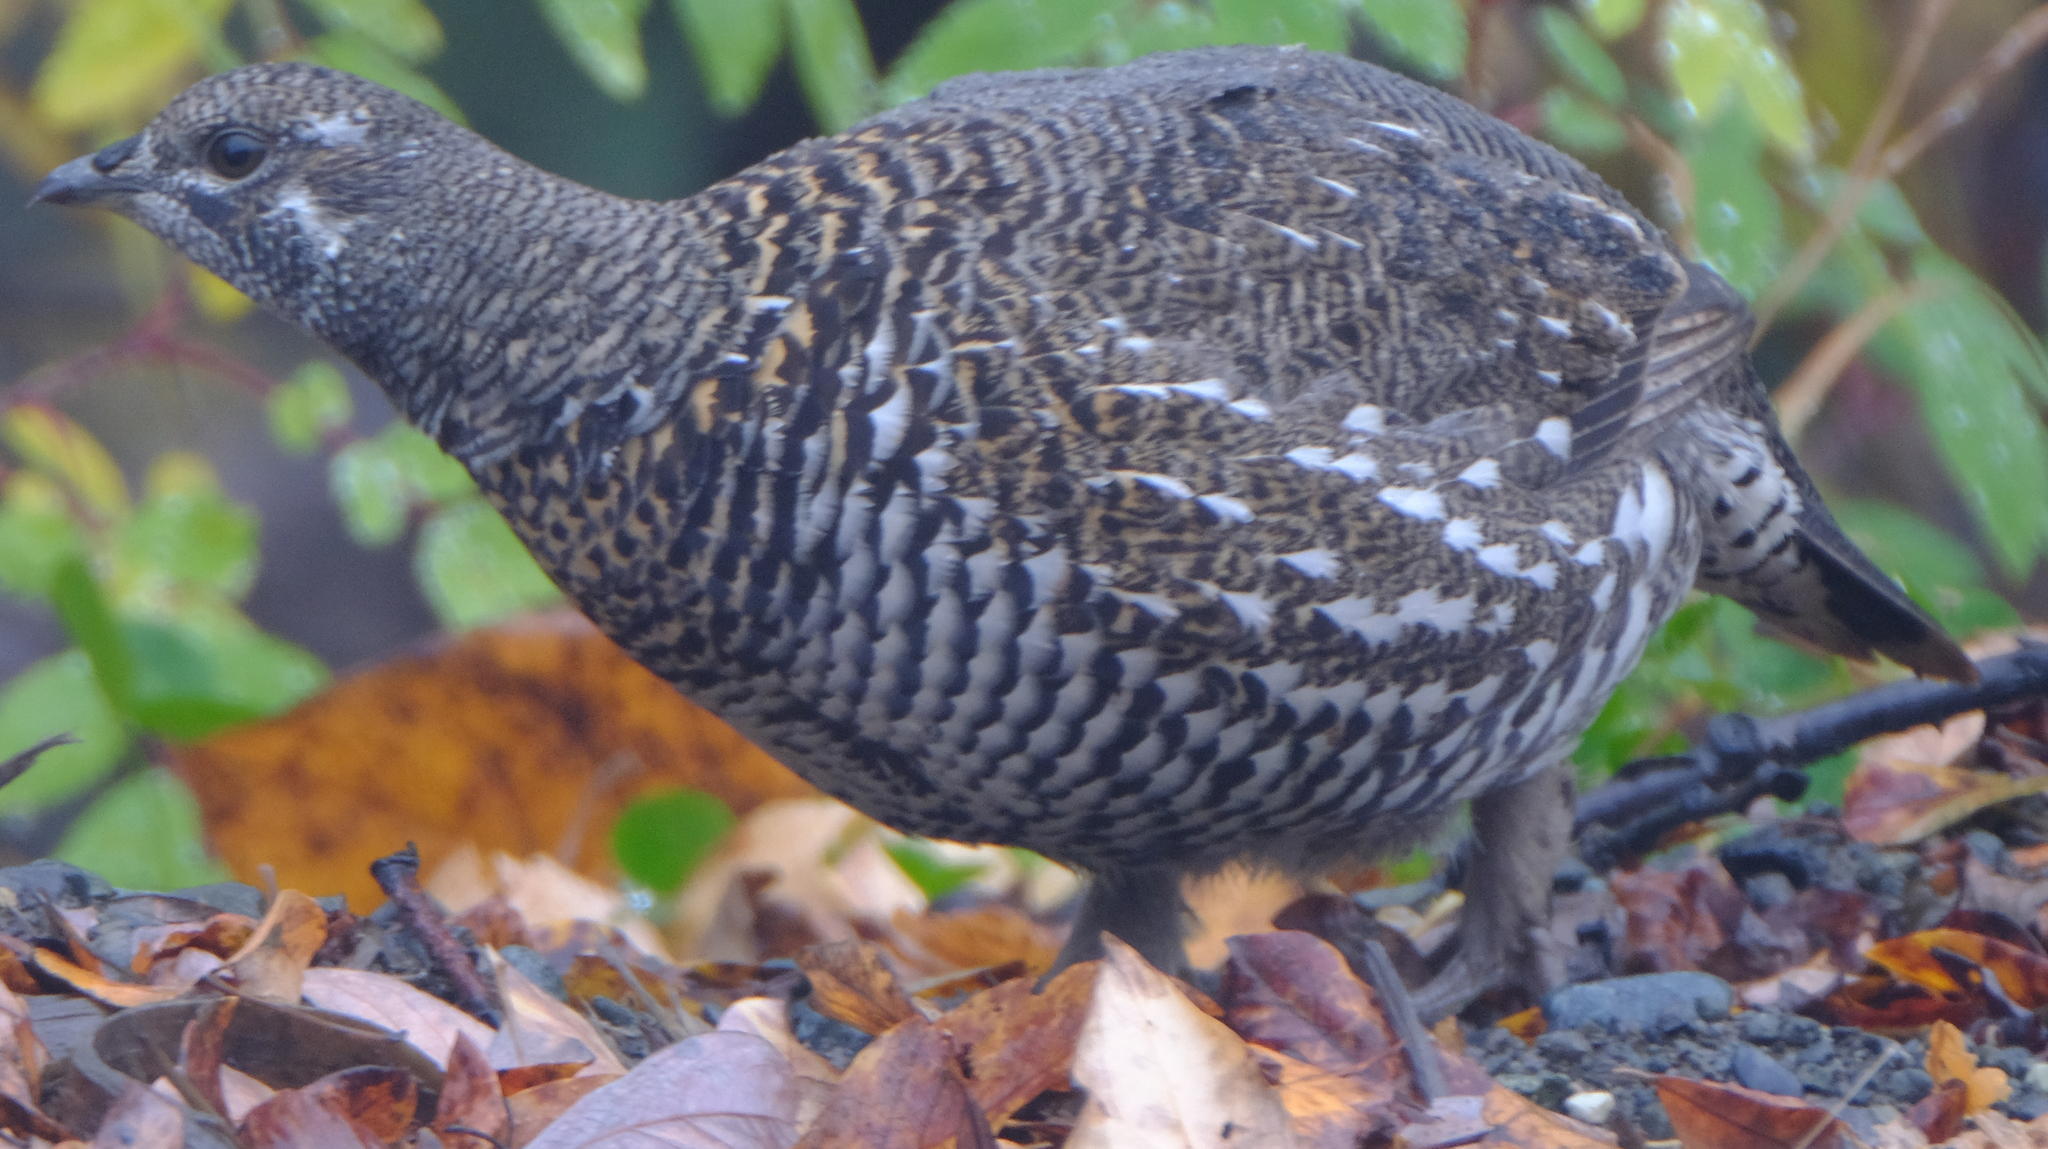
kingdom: Animalia
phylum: Chordata
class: Aves
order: Galliformes
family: Phasianidae
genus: Canachites
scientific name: Canachites canadensis
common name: Spruce grouse
